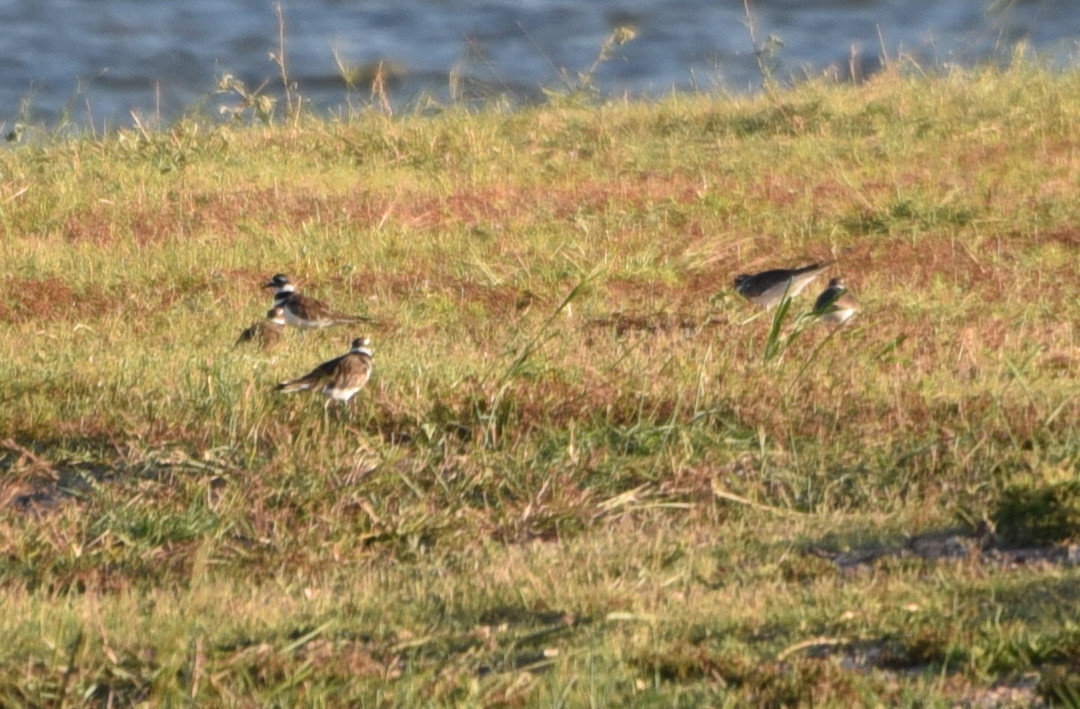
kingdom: Animalia
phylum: Chordata
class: Aves
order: Charadriiformes
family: Charadriidae
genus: Charadrius
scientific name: Charadrius vociferus
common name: Killdeer
